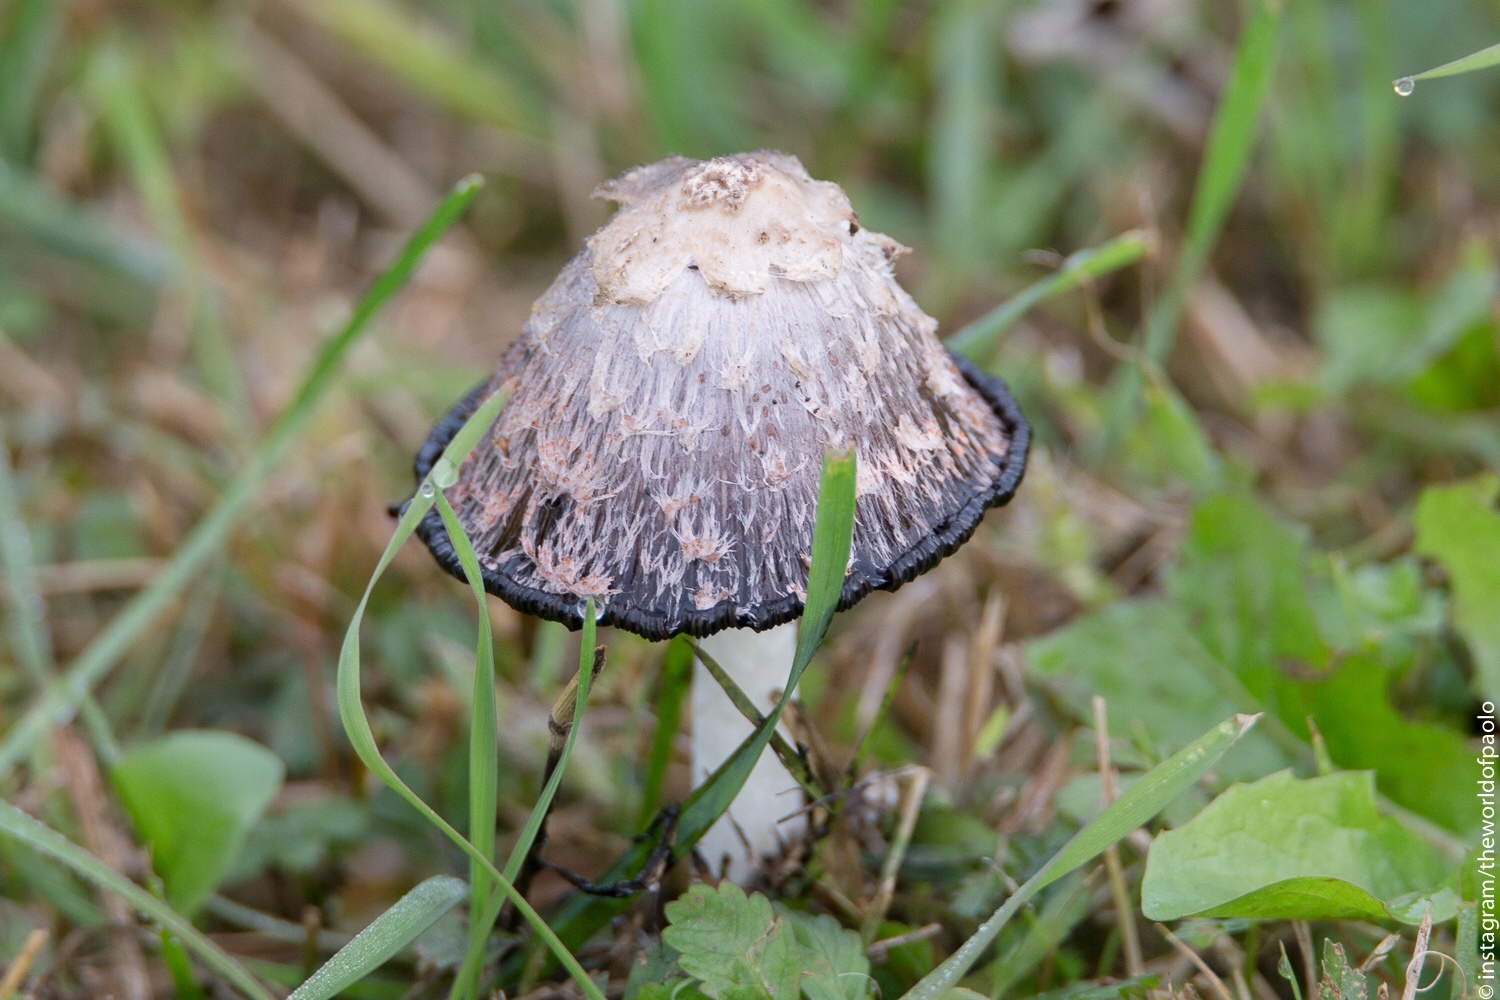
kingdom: Fungi
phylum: Basidiomycota
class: Agaricomycetes
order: Agaricales
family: Agaricaceae
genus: Coprinus
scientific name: Coprinus comatus
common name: Lawyer's wig
